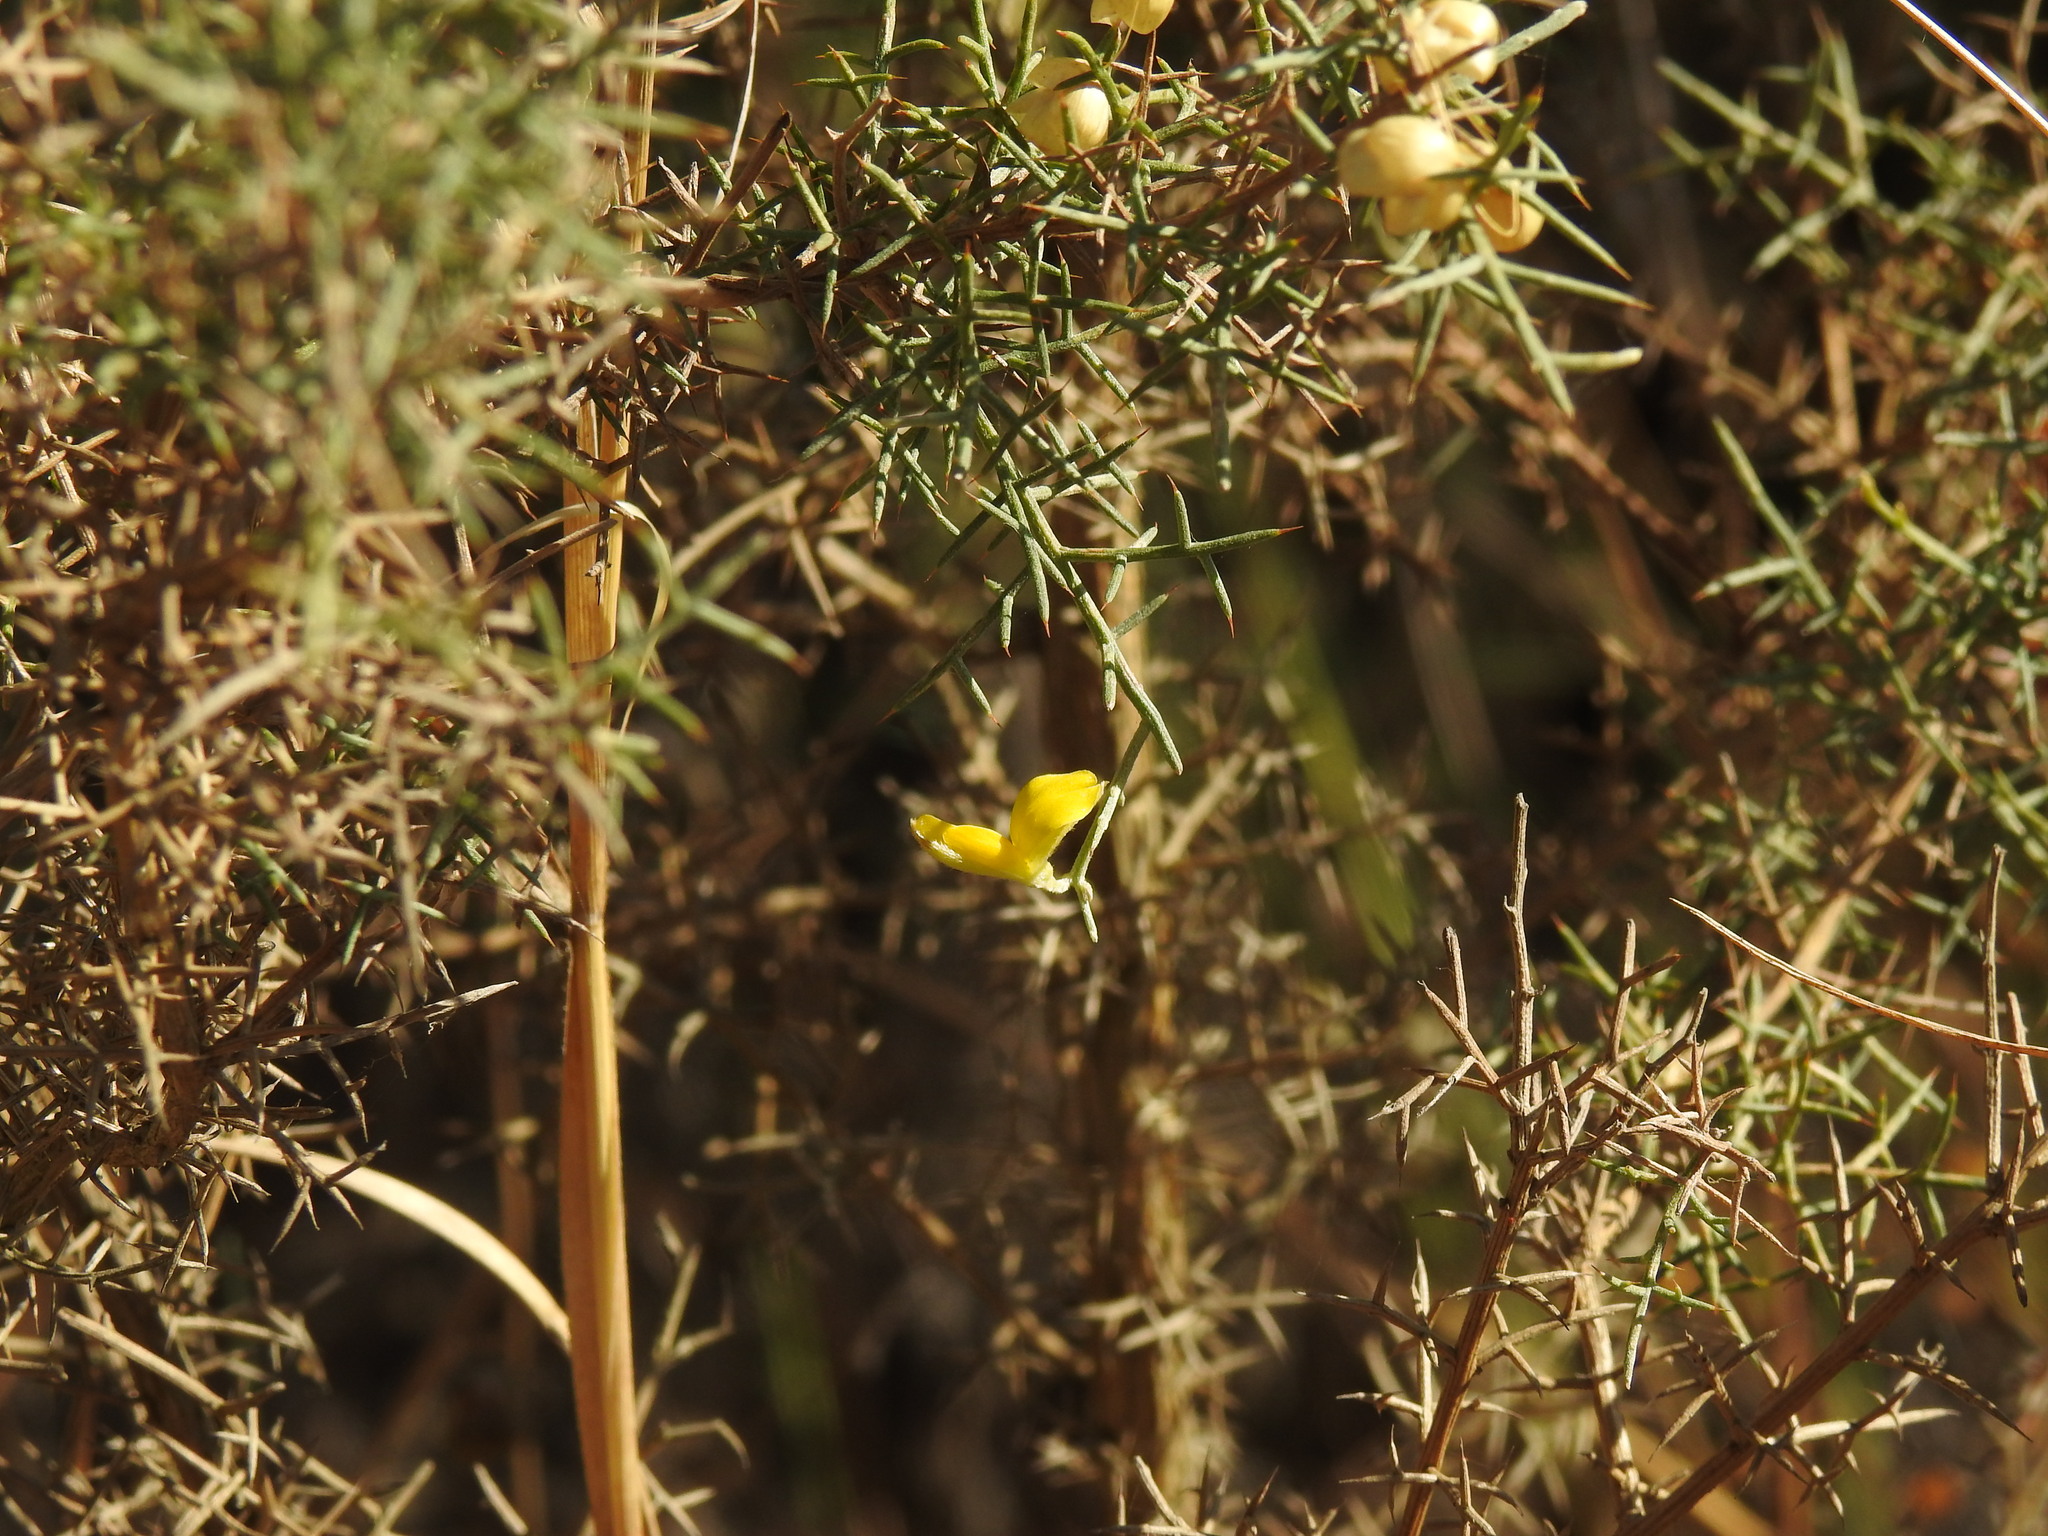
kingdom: Plantae
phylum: Tracheophyta
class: Magnoliopsida
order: Fabales
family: Fabaceae
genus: Stauracanthus
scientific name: Stauracanthus genistoides
